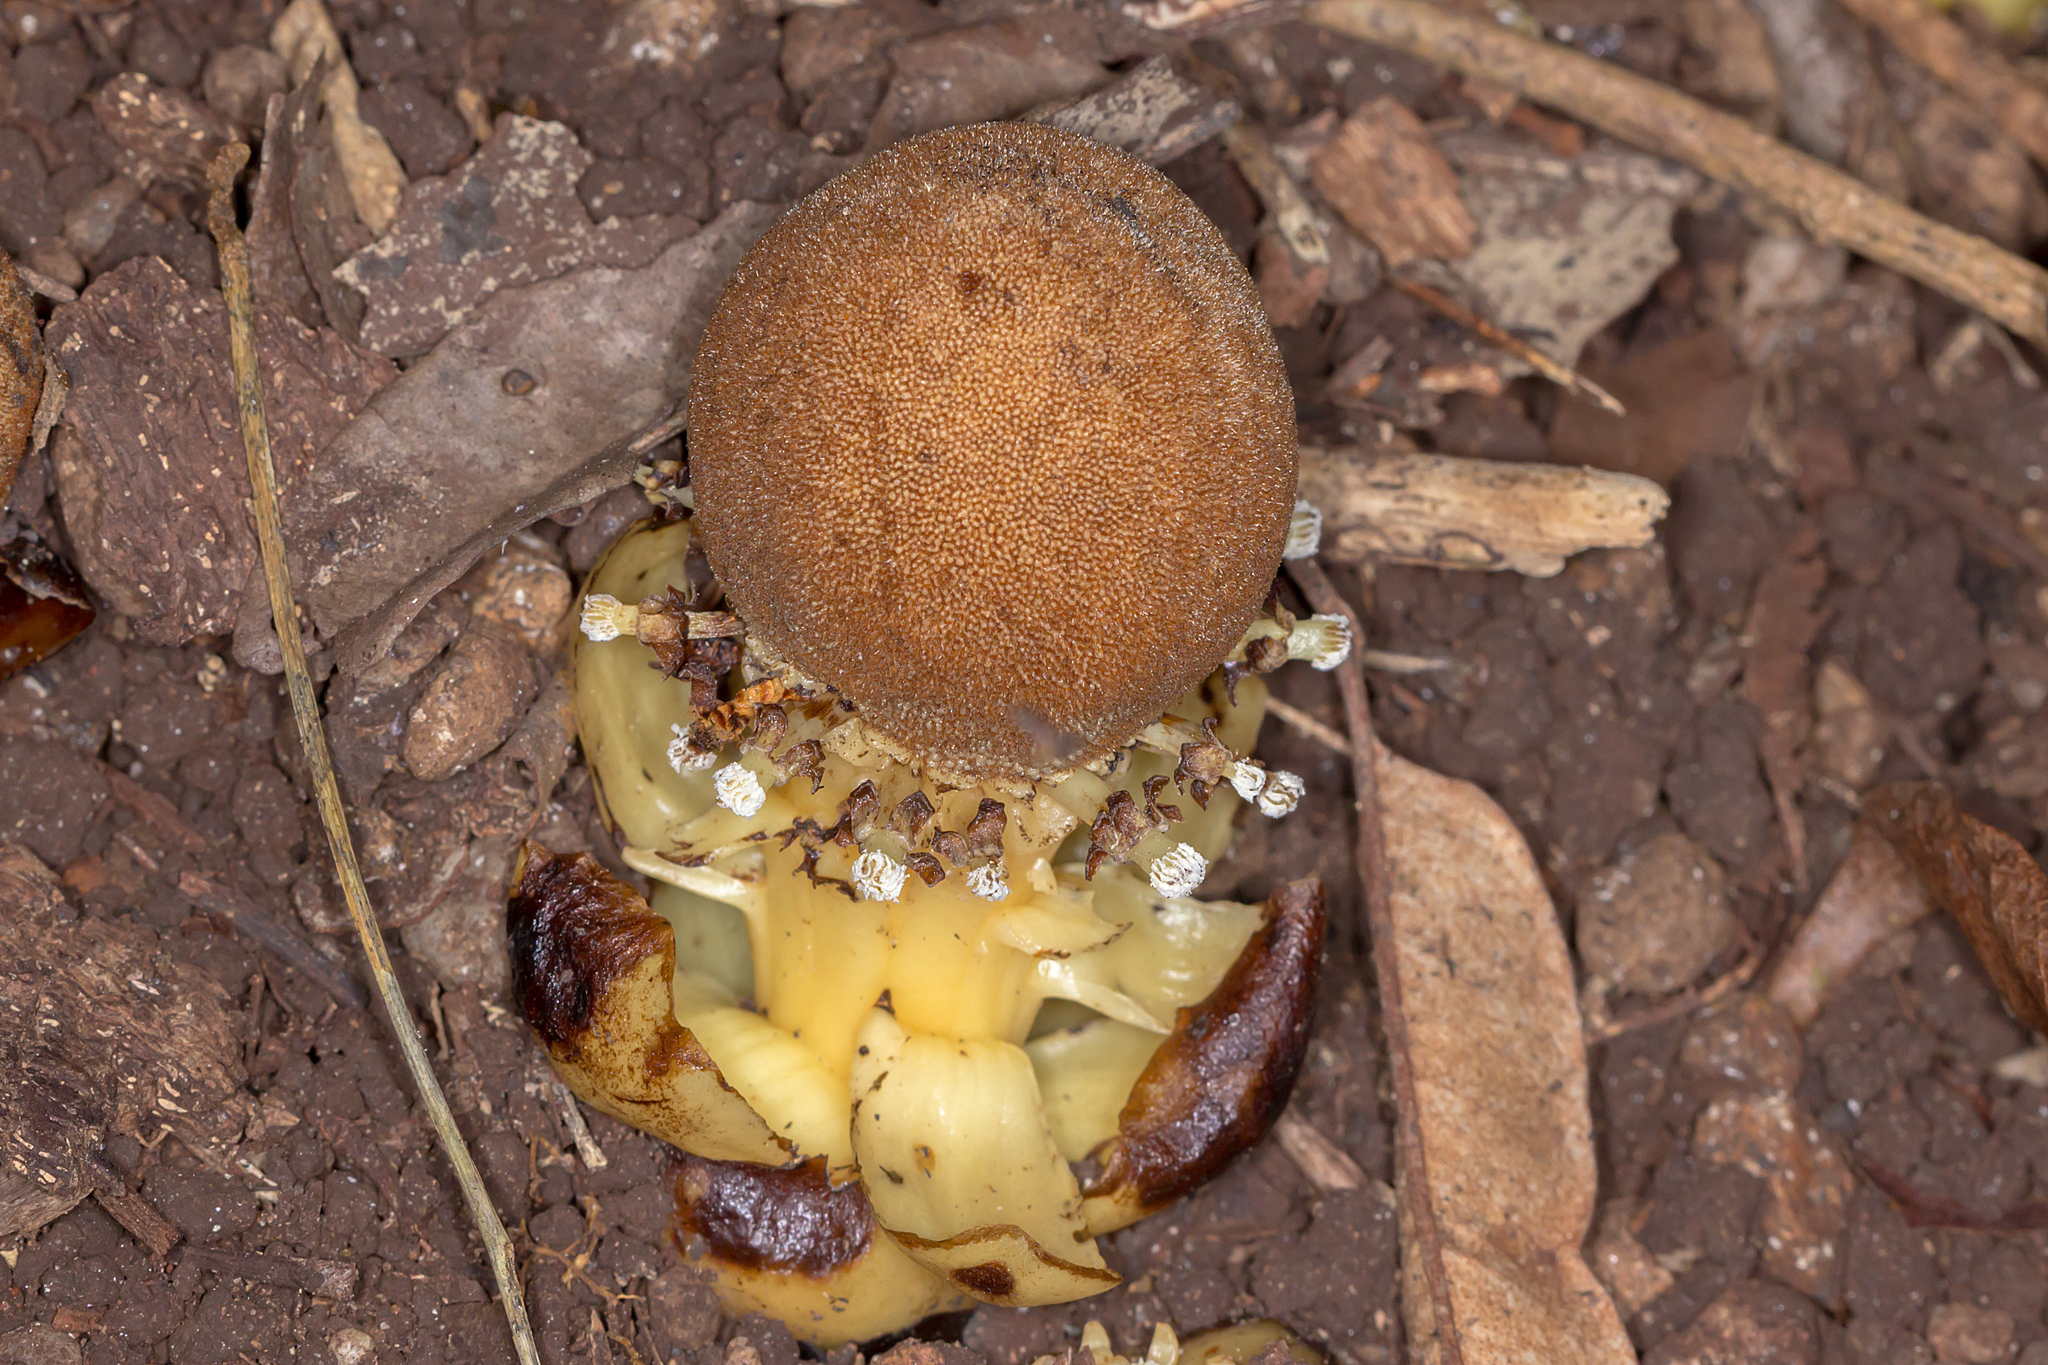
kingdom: Plantae
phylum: Tracheophyta
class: Magnoliopsida
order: Santalales
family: Balanophoraceae
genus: Balanophora
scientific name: Balanophora fungosa
